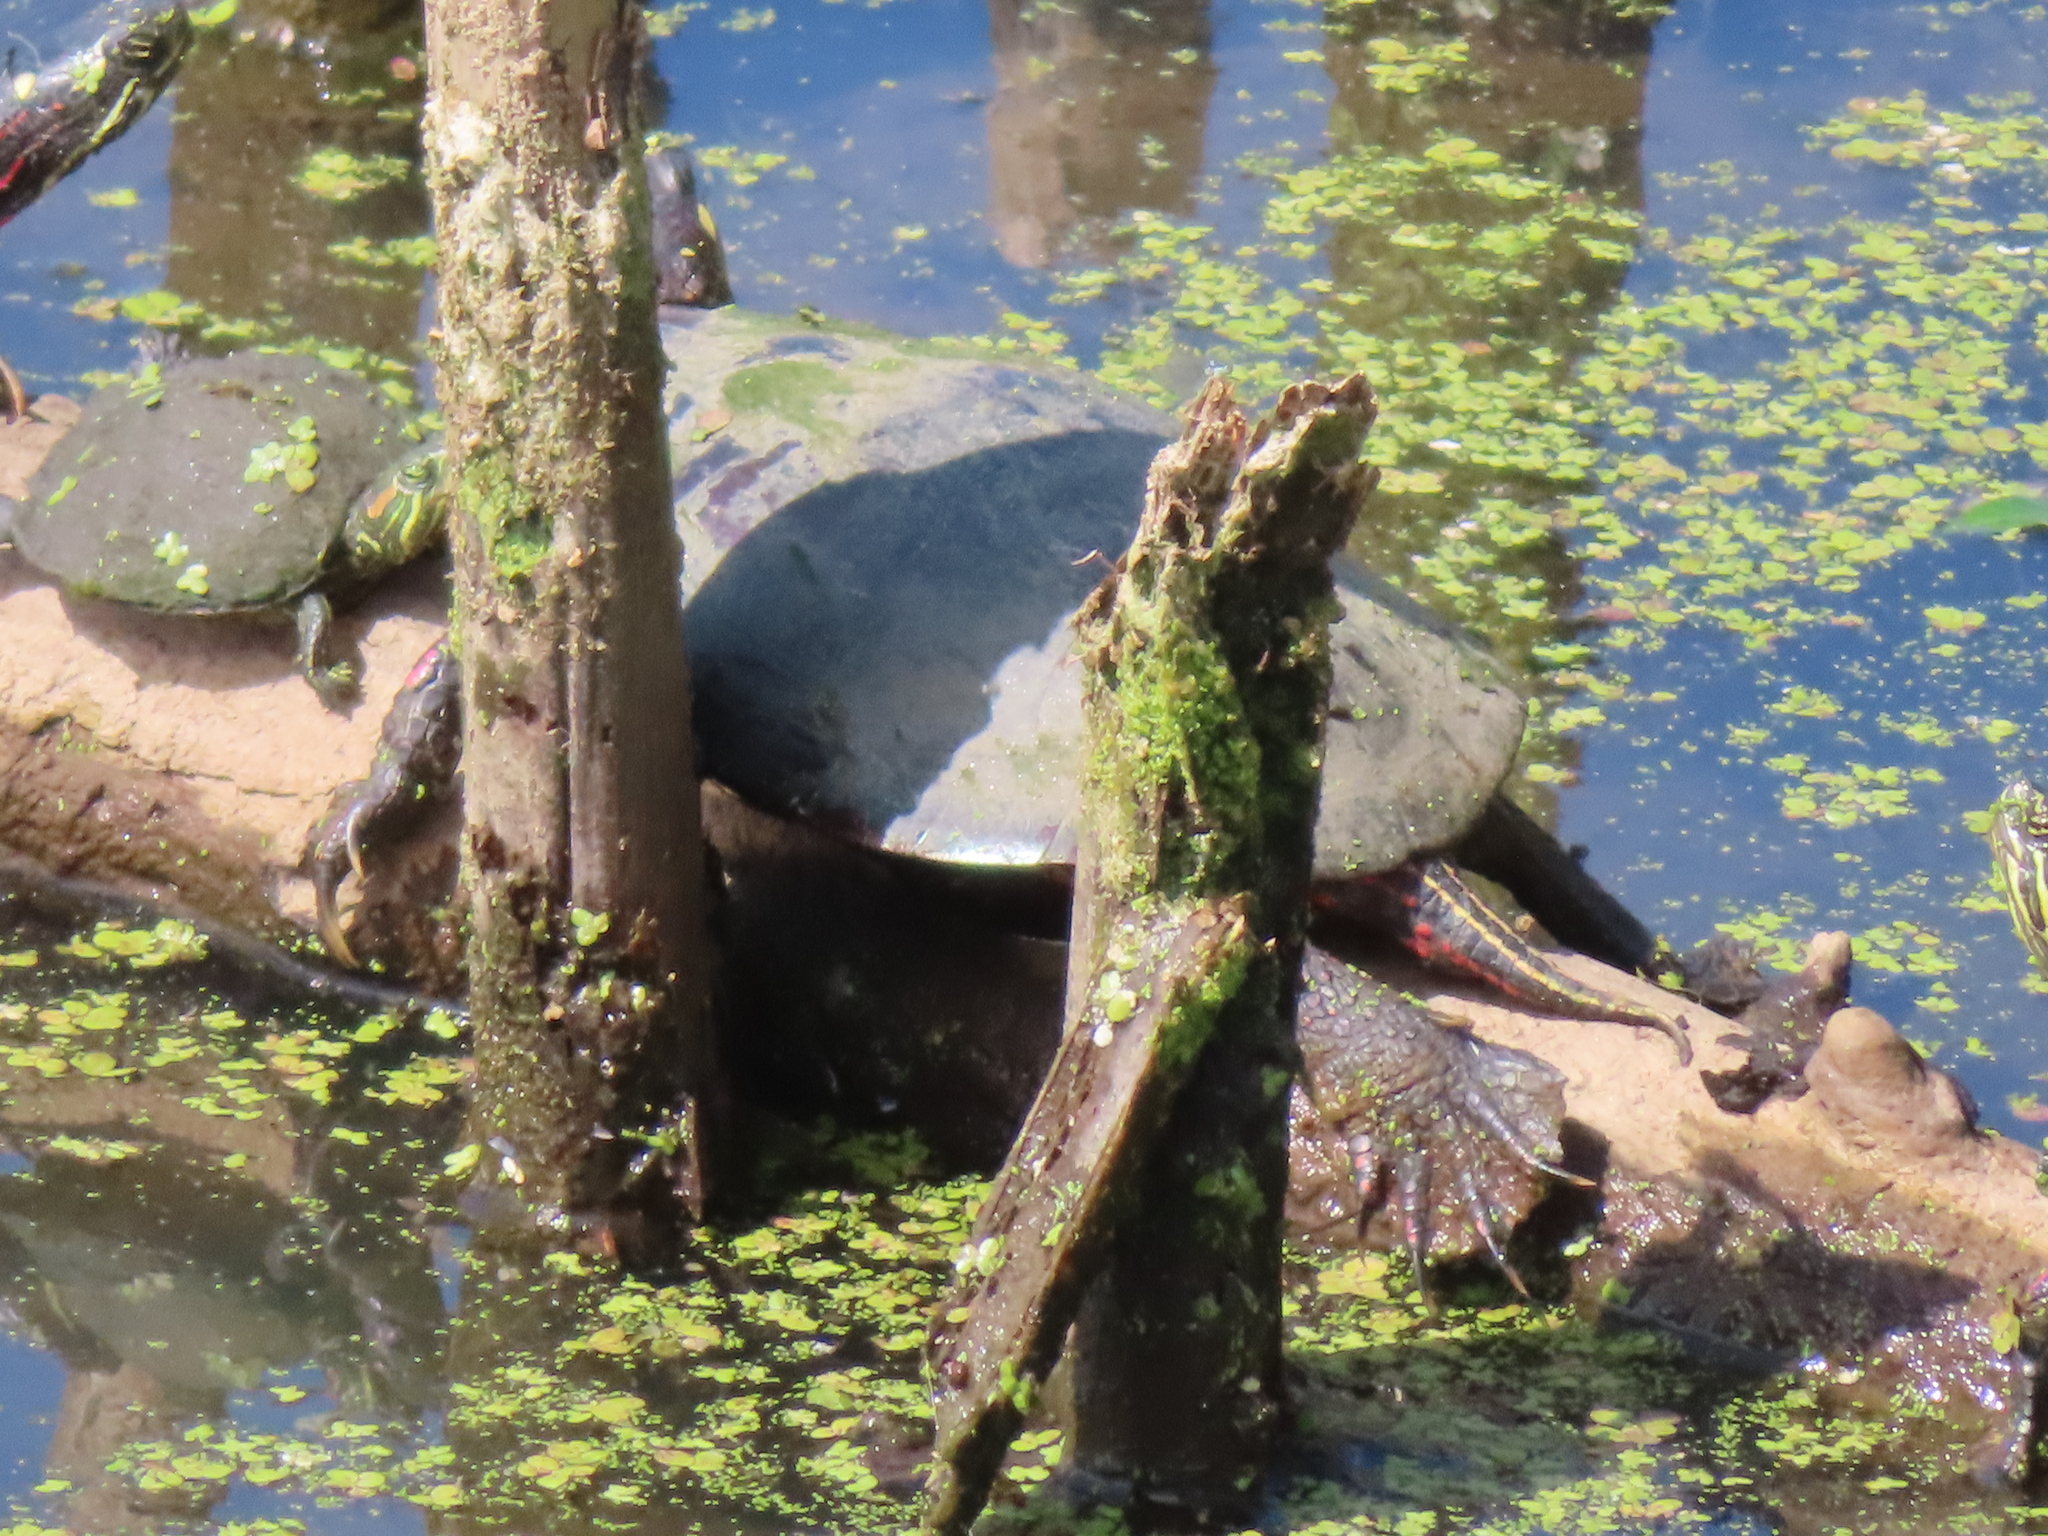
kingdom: Animalia
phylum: Chordata
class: Testudines
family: Emydidae
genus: Chrysemys
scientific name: Chrysemys picta
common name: Painted turtle
